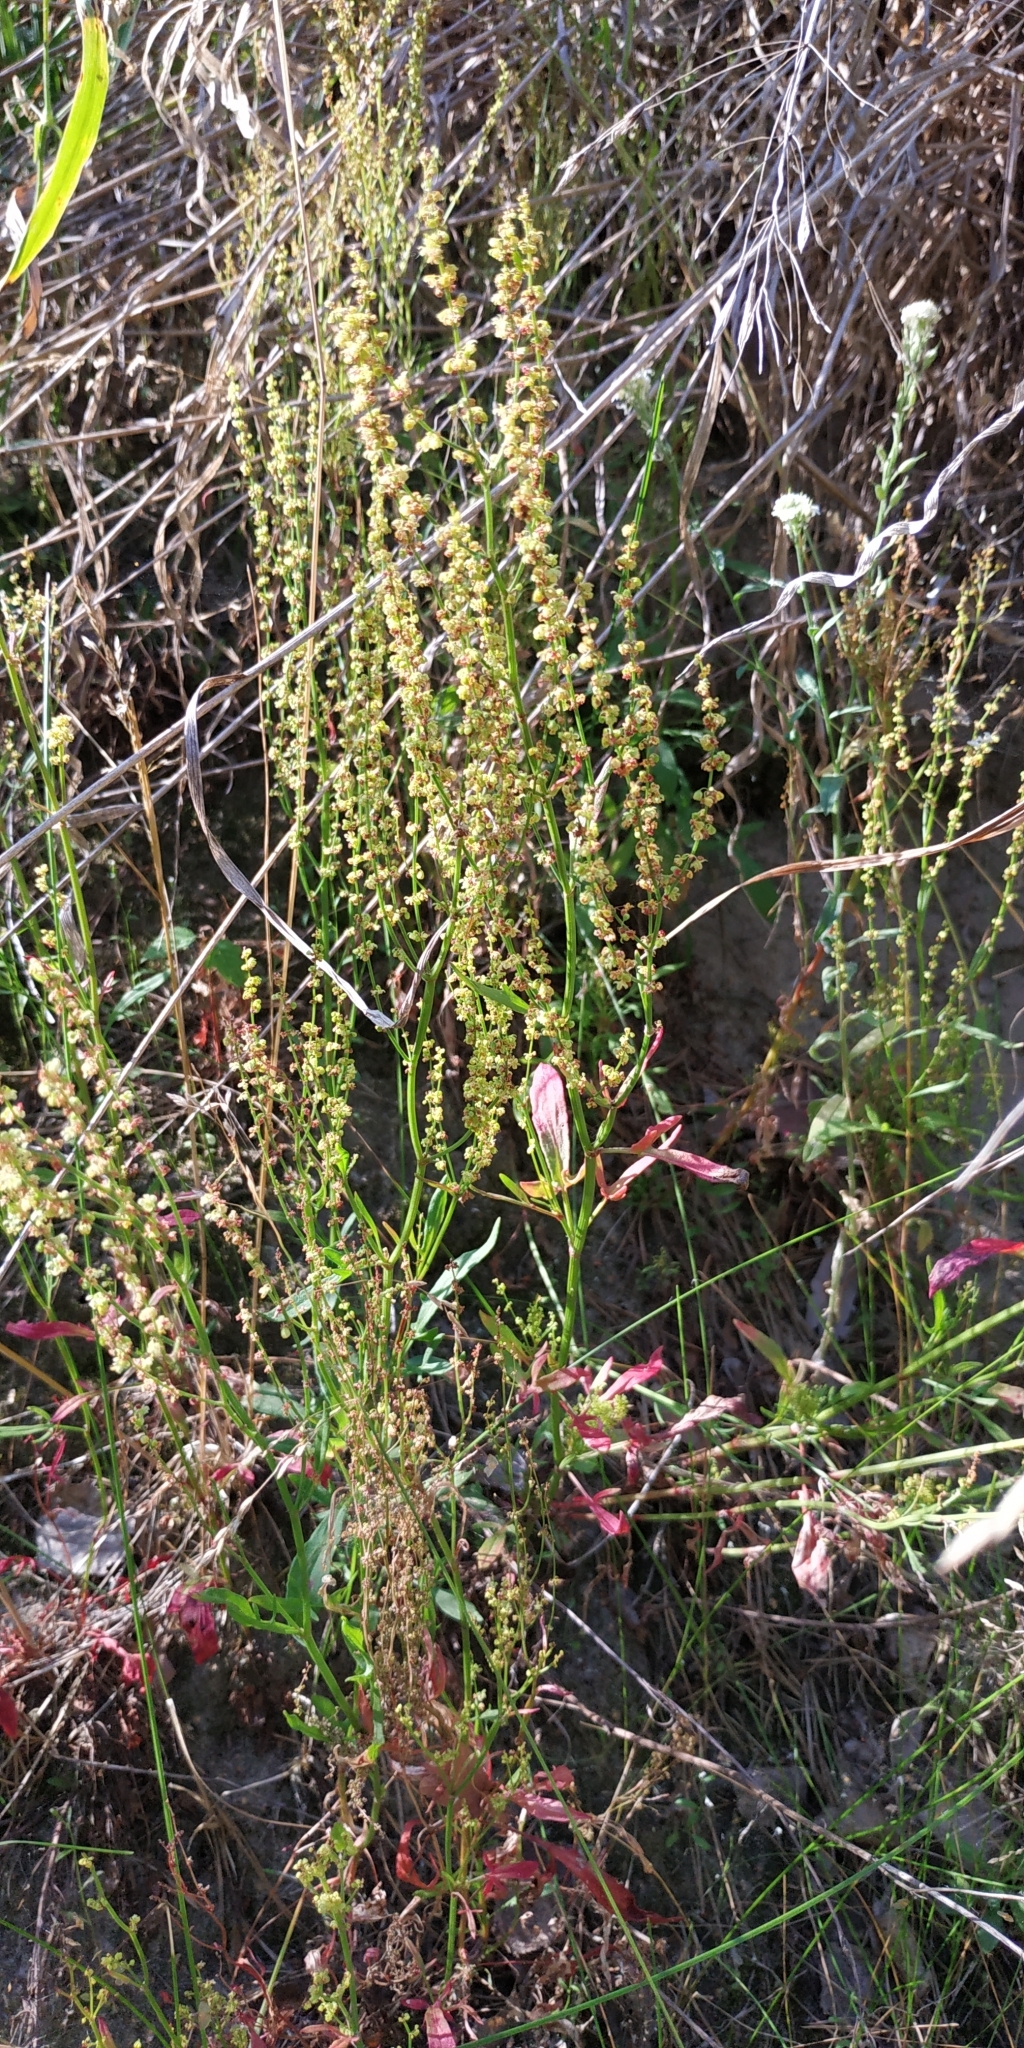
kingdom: Plantae
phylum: Tracheophyta
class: Magnoliopsida
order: Caryophyllales
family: Polygonaceae
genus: Rumex
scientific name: Rumex acetosella
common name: Common sheep sorrel
